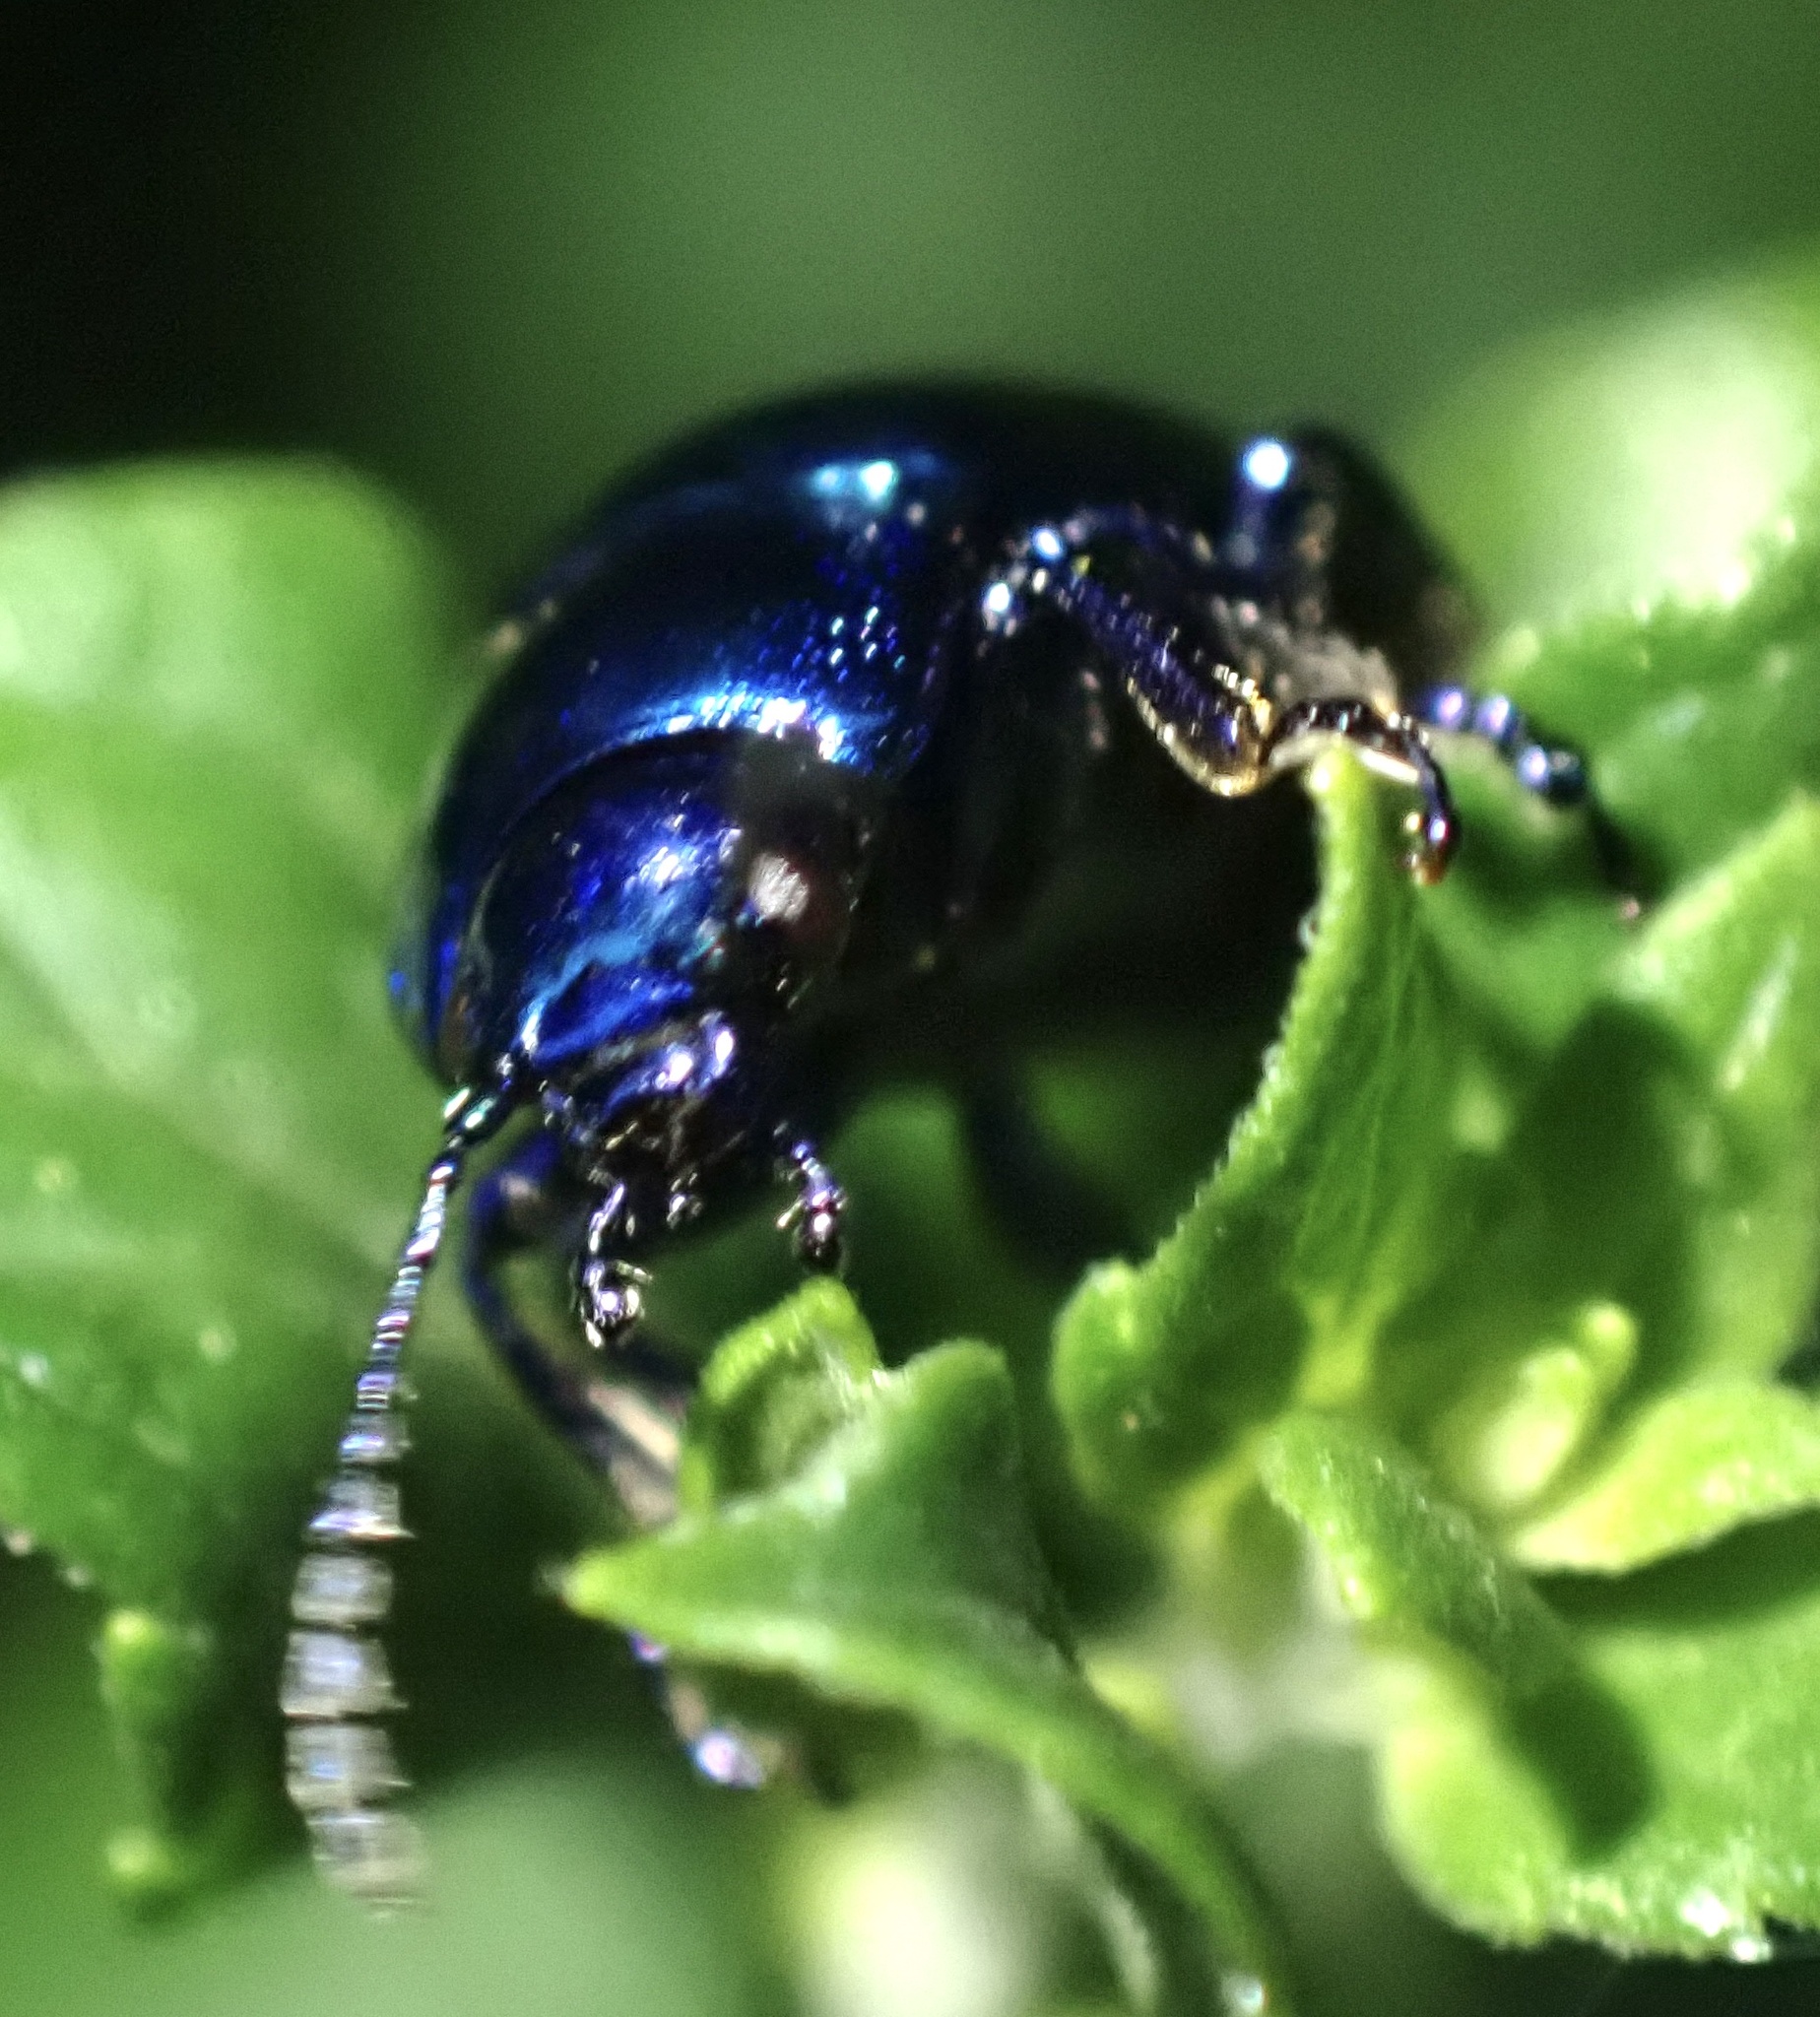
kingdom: Animalia
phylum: Arthropoda
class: Insecta
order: Coleoptera
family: Chrysomelidae
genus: Chrysolina
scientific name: Chrysolina coerulans
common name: Blue mint beetle
